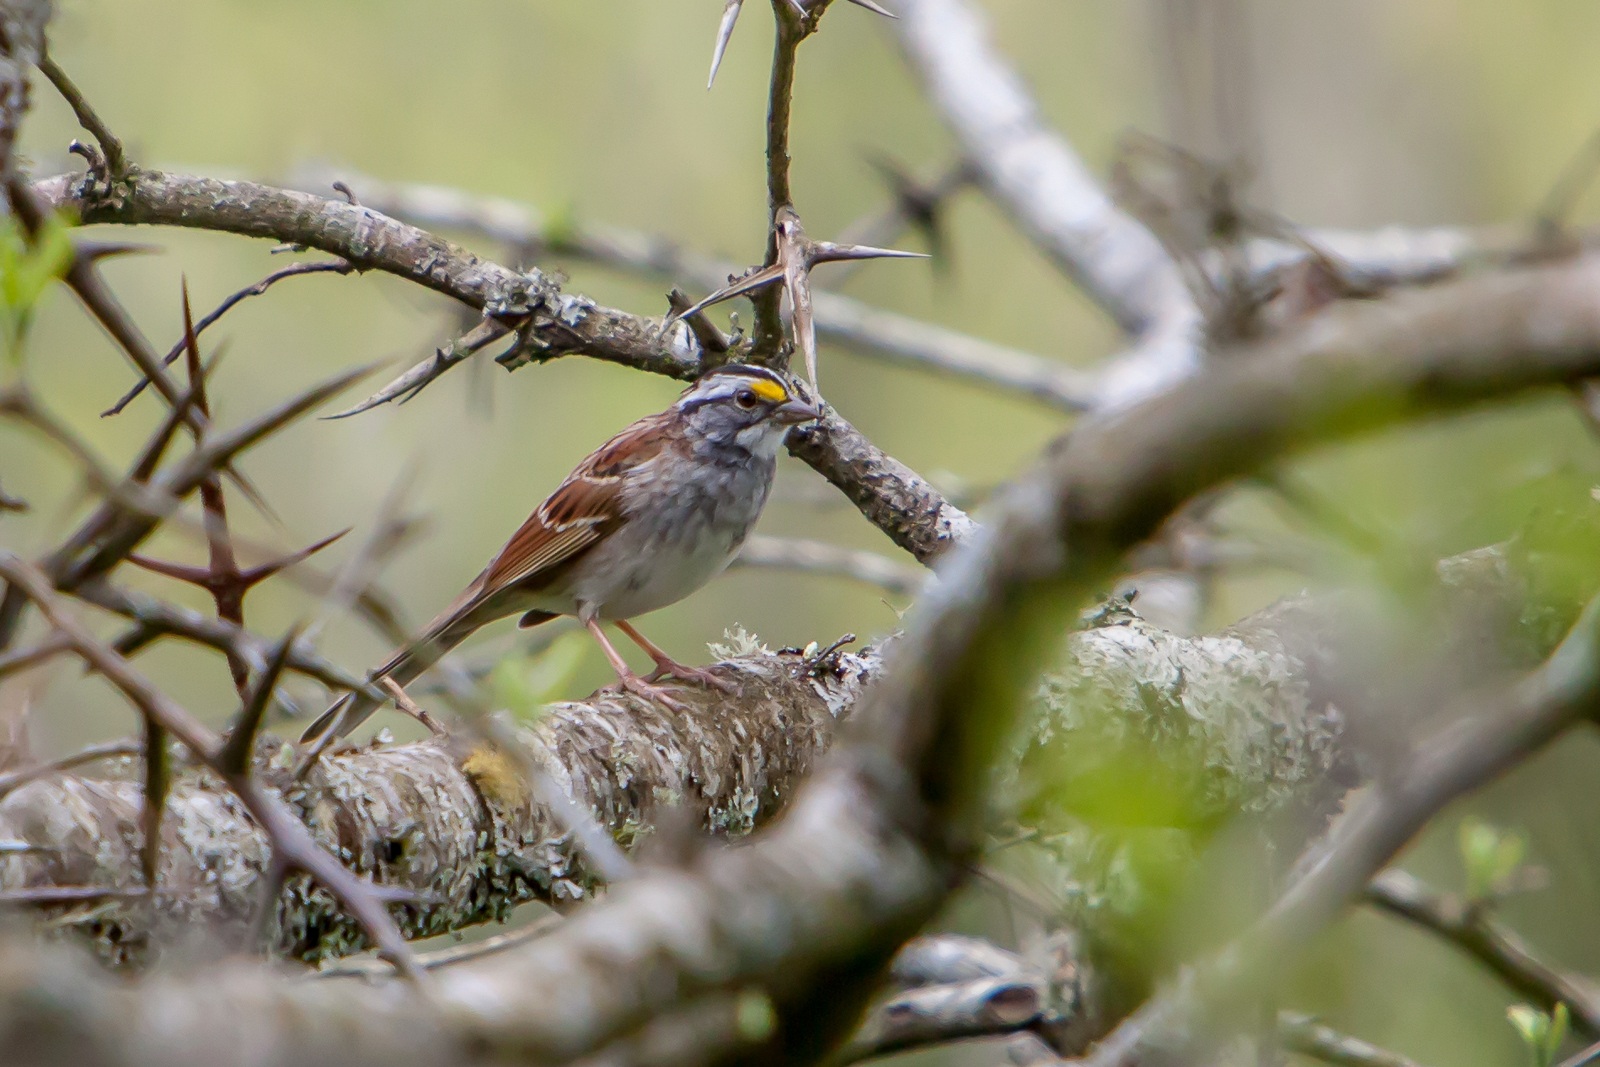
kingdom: Animalia
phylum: Chordata
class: Aves
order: Passeriformes
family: Passerellidae
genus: Zonotrichia
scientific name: Zonotrichia albicollis
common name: White-throated sparrow
